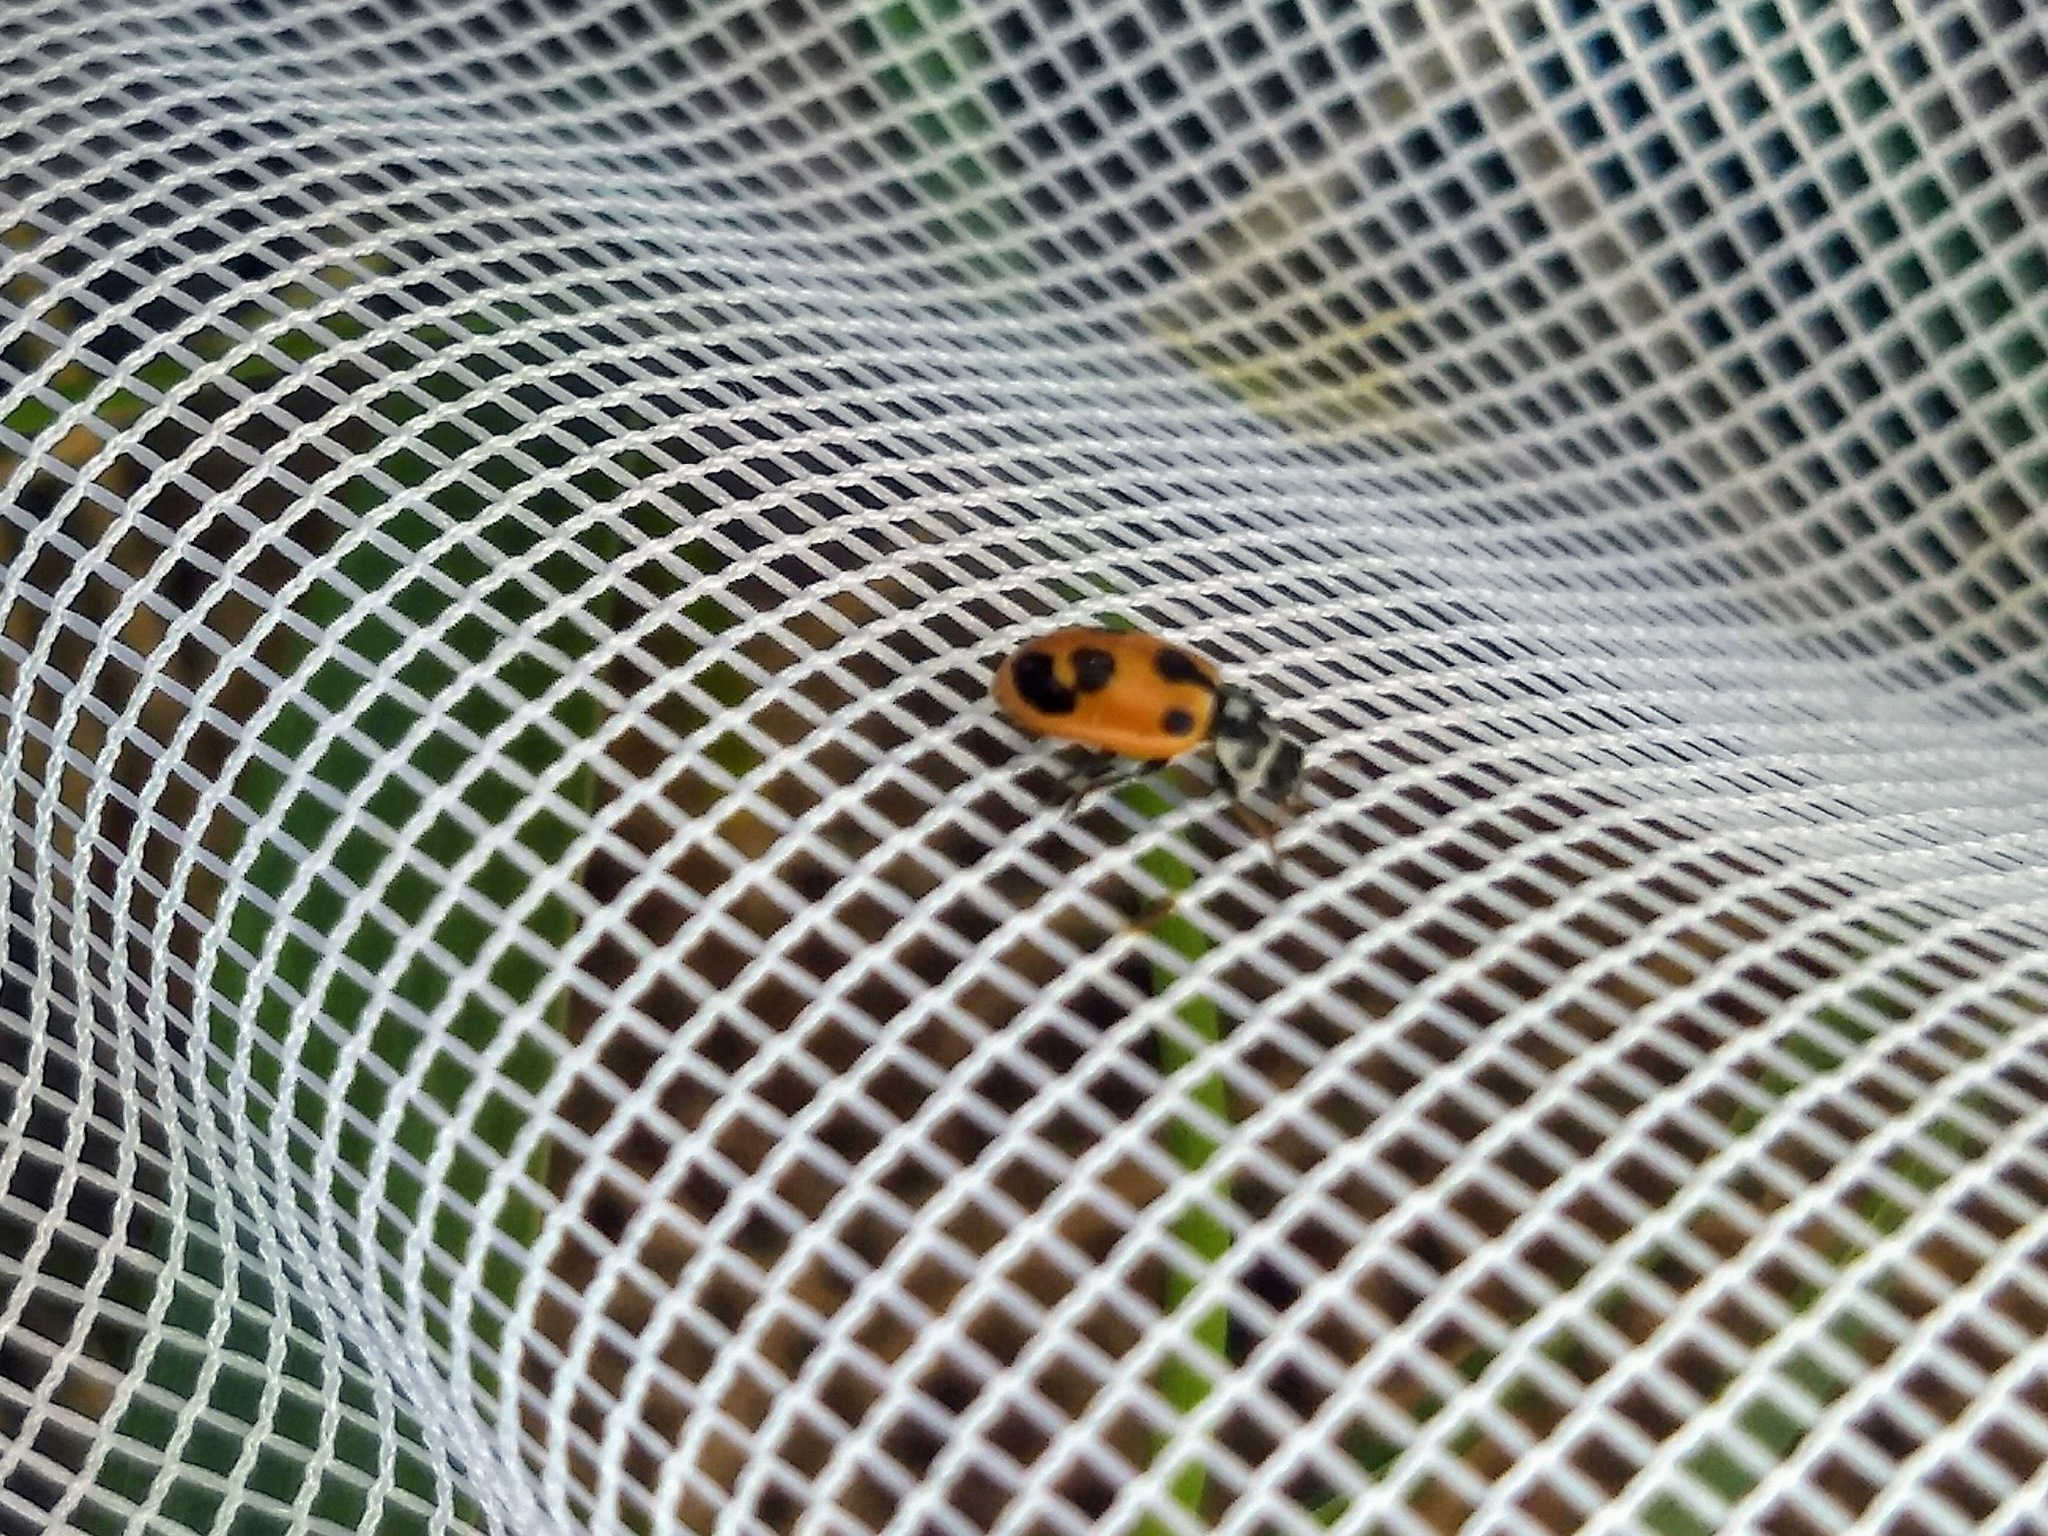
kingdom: Animalia
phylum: Arthropoda
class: Insecta
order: Coleoptera
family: Coccinellidae
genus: Hippodamia
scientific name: Hippodamia parenthesis
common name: Parenthesis lady beetle
